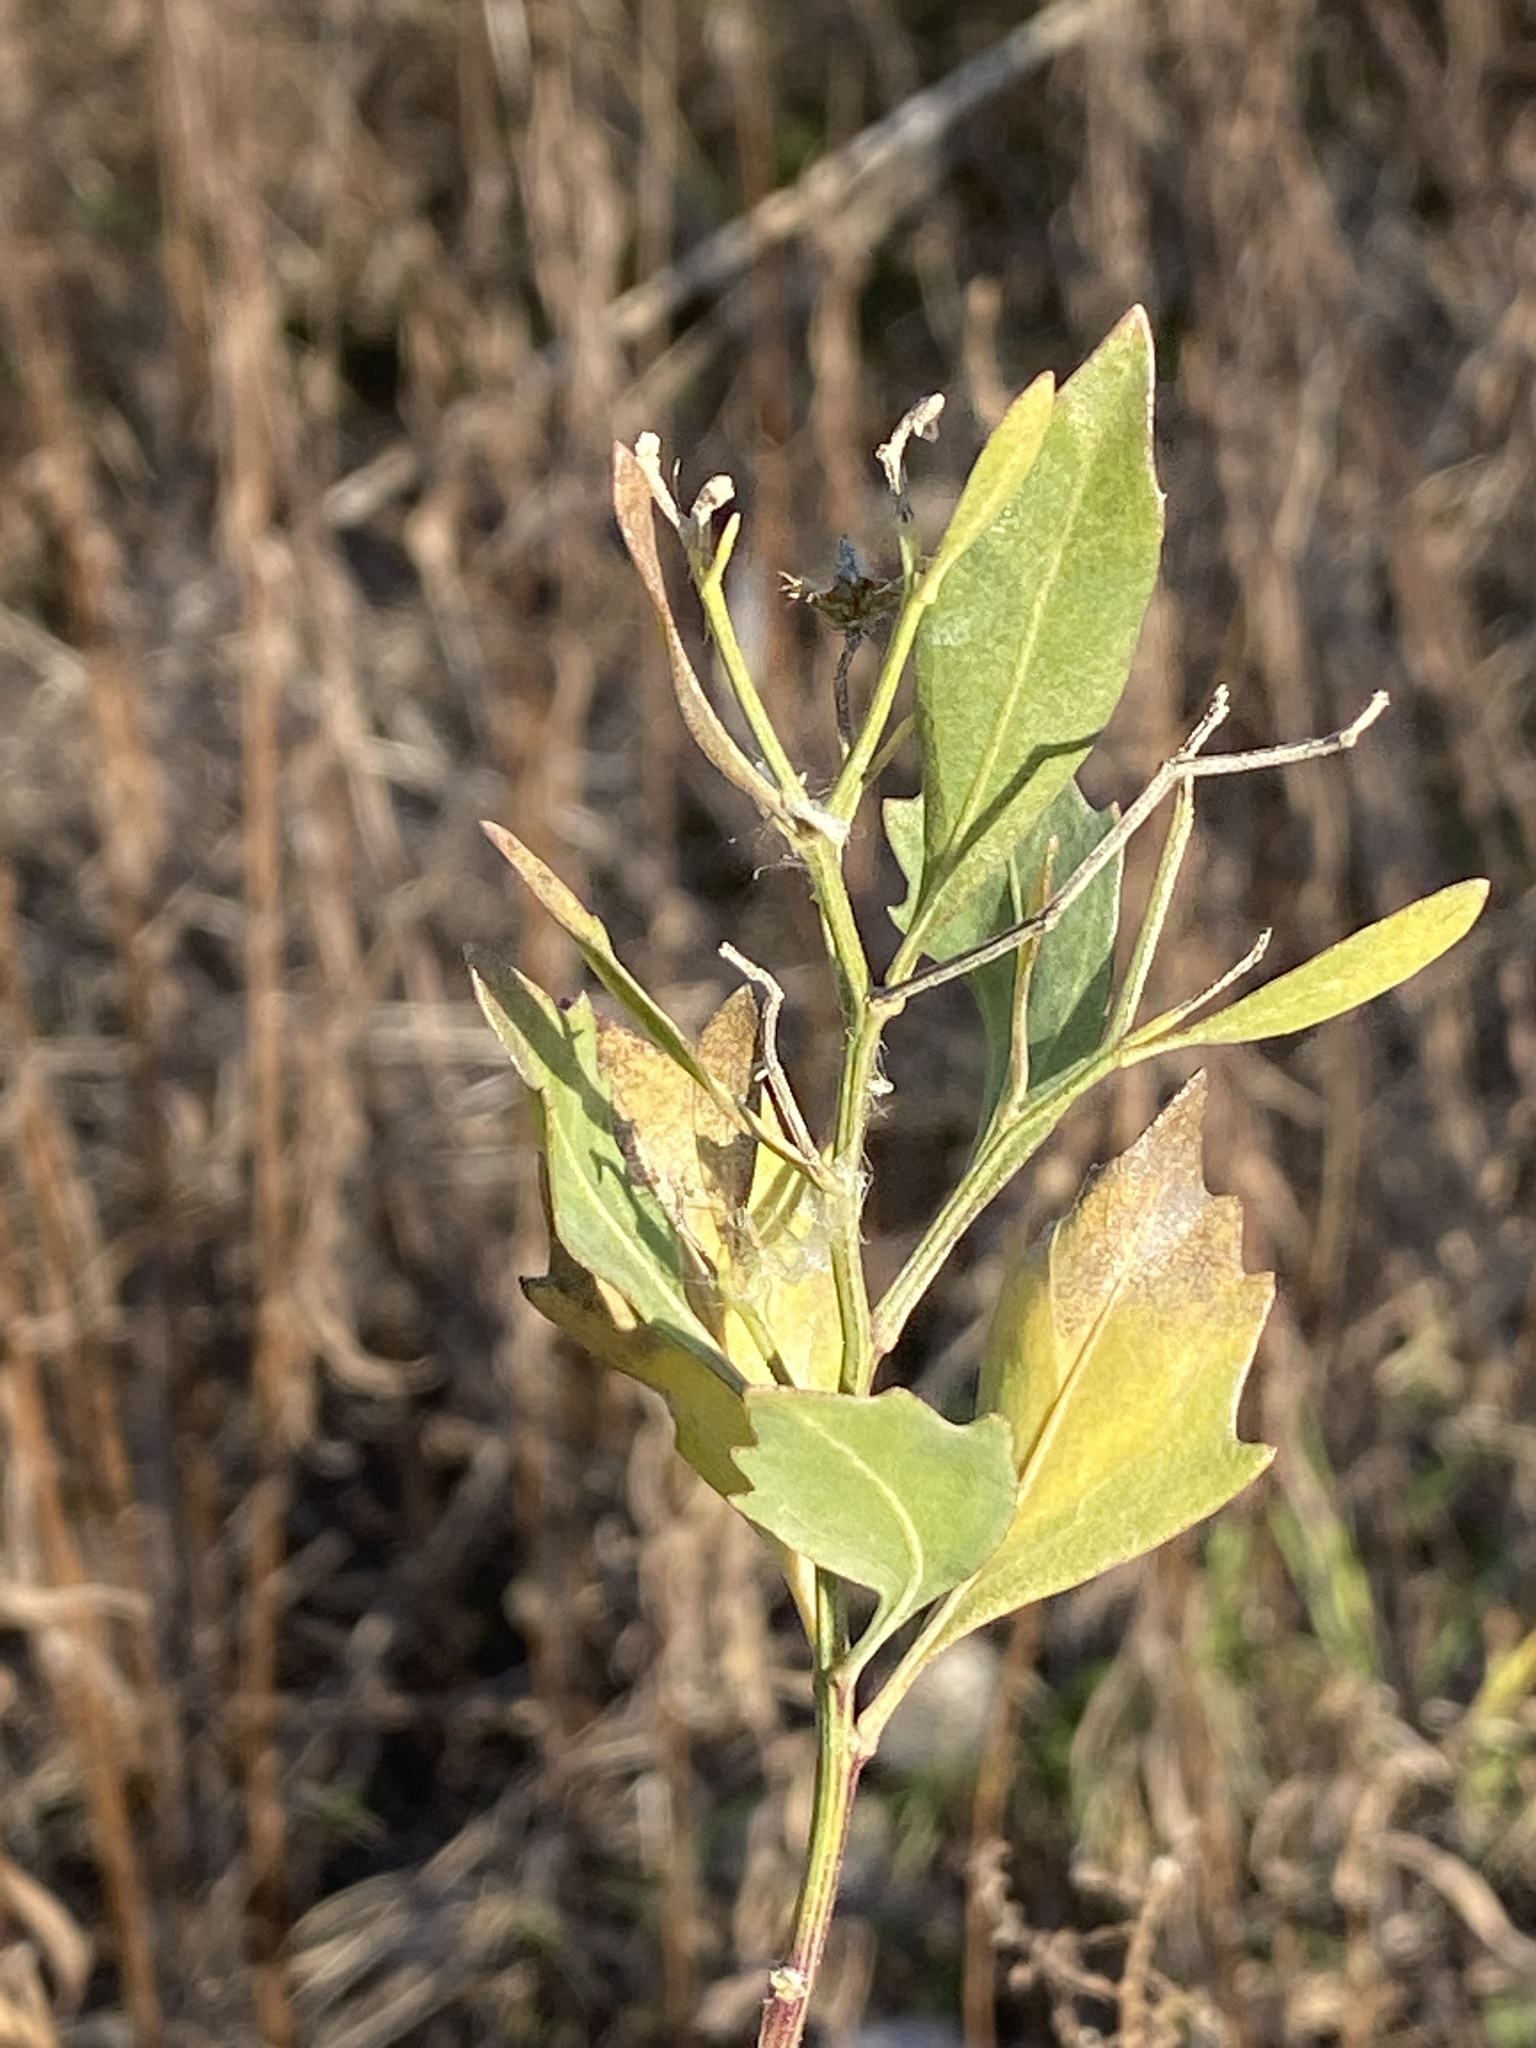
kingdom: Plantae
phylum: Tracheophyta
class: Magnoliopsida
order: Asterales
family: Asteraceae
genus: Baccharis
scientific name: Baccharis halimifolia
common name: Eastern baccharis
